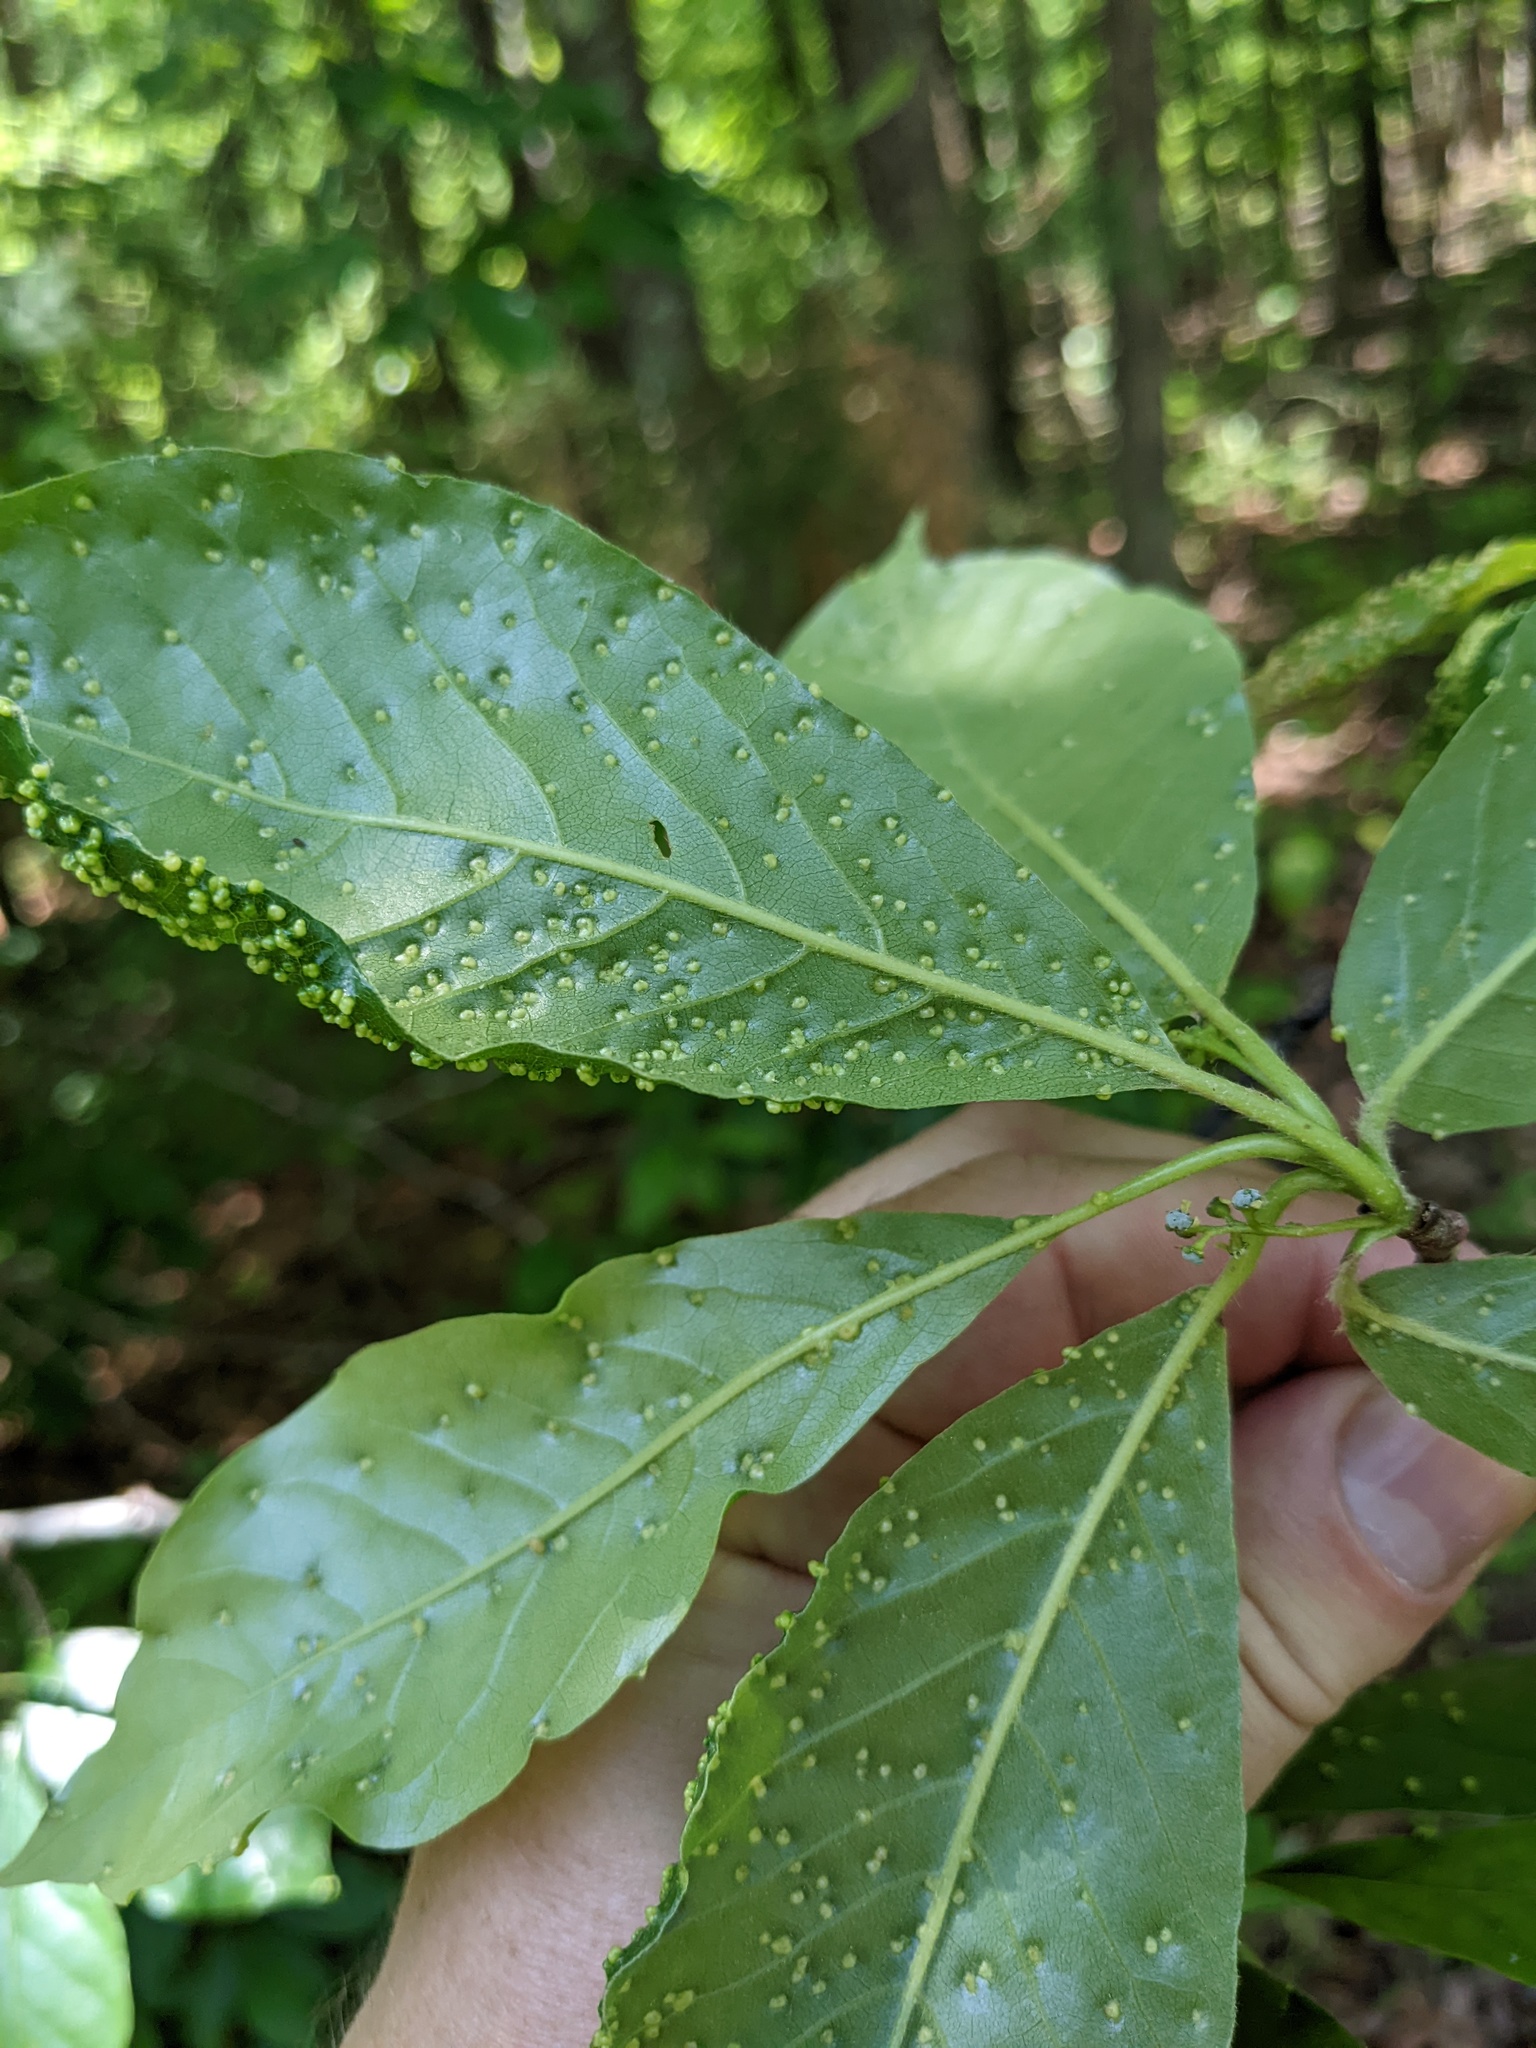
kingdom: Animalia
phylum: Arthropoda
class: Arachnida
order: Trombidiformes
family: Eriophyidae
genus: Aceria
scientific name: Aceria
